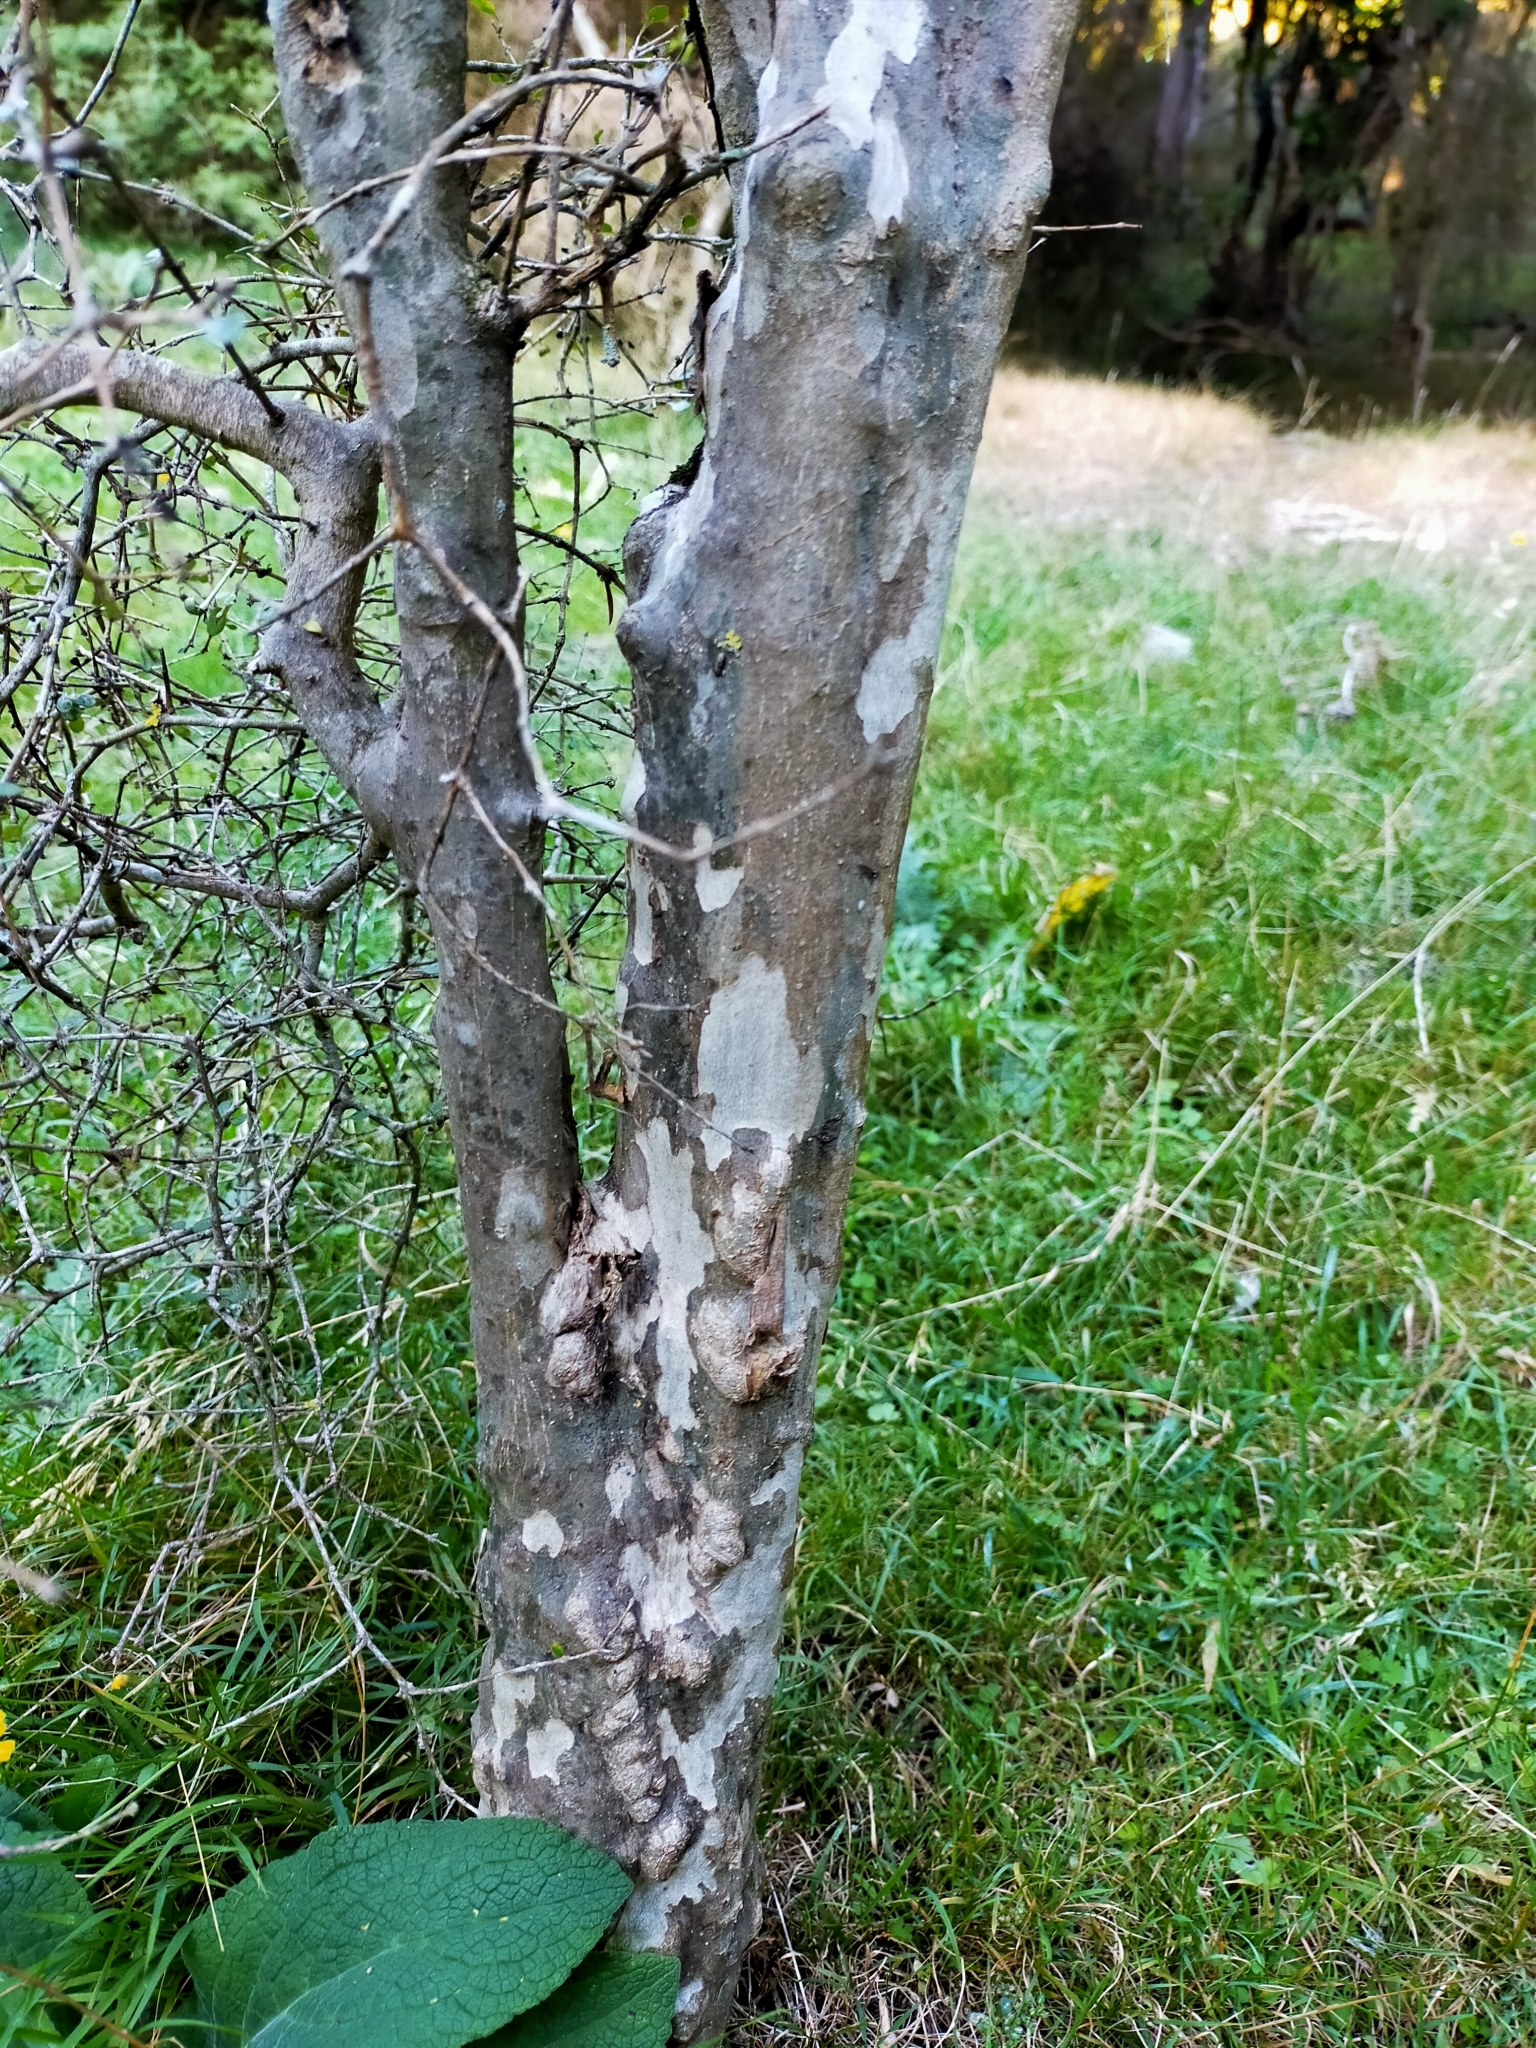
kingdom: Plantae
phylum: Tracheophyta
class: Magnoliopsida
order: Gentianales
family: Rubiaceae
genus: Coprosma
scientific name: Coprosma virescens
